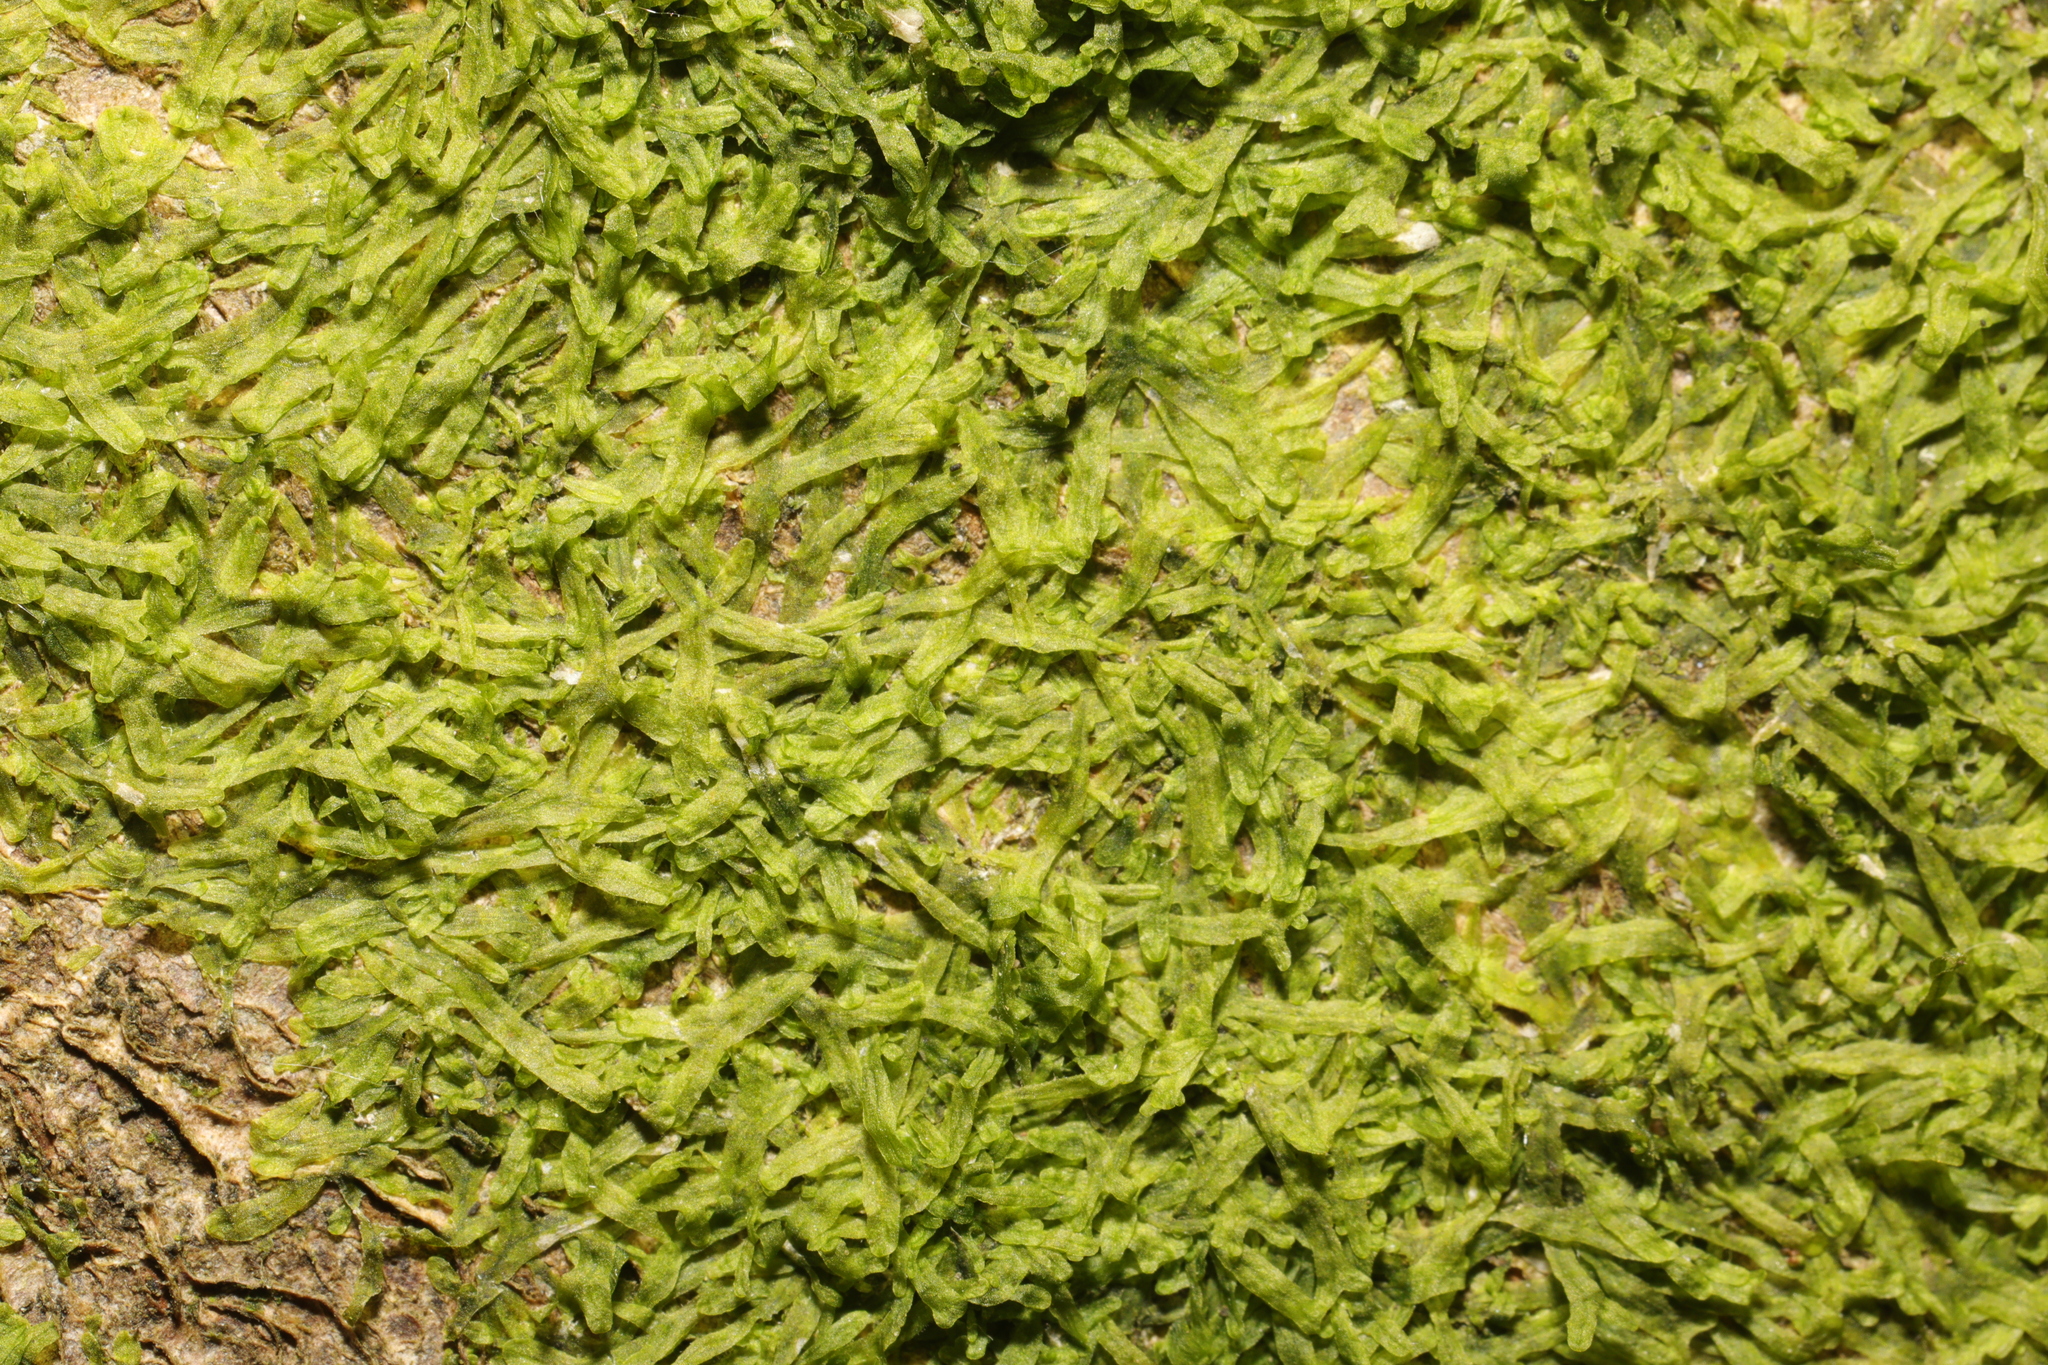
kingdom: Plantae
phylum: Marchantiophyta
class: Jungermanniopsida
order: Metzgeriales
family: Metzgeriaceae
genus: Metzgeria
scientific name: Metzgeria furcata
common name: Forked veilwort
